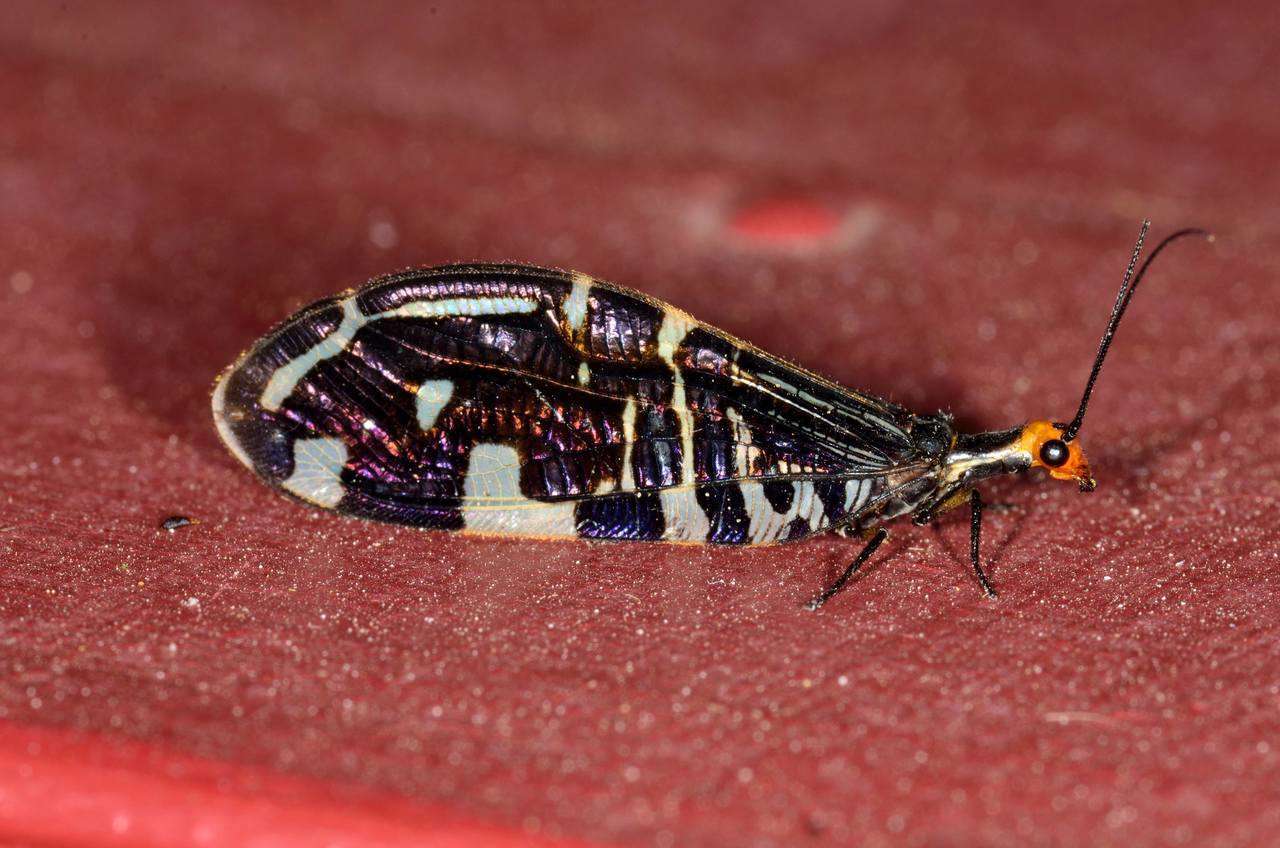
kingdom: Animalia
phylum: Arthropoda
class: Insecta
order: Neuroptera
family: Osmylidae
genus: Porismus
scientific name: Porismus strigatus
